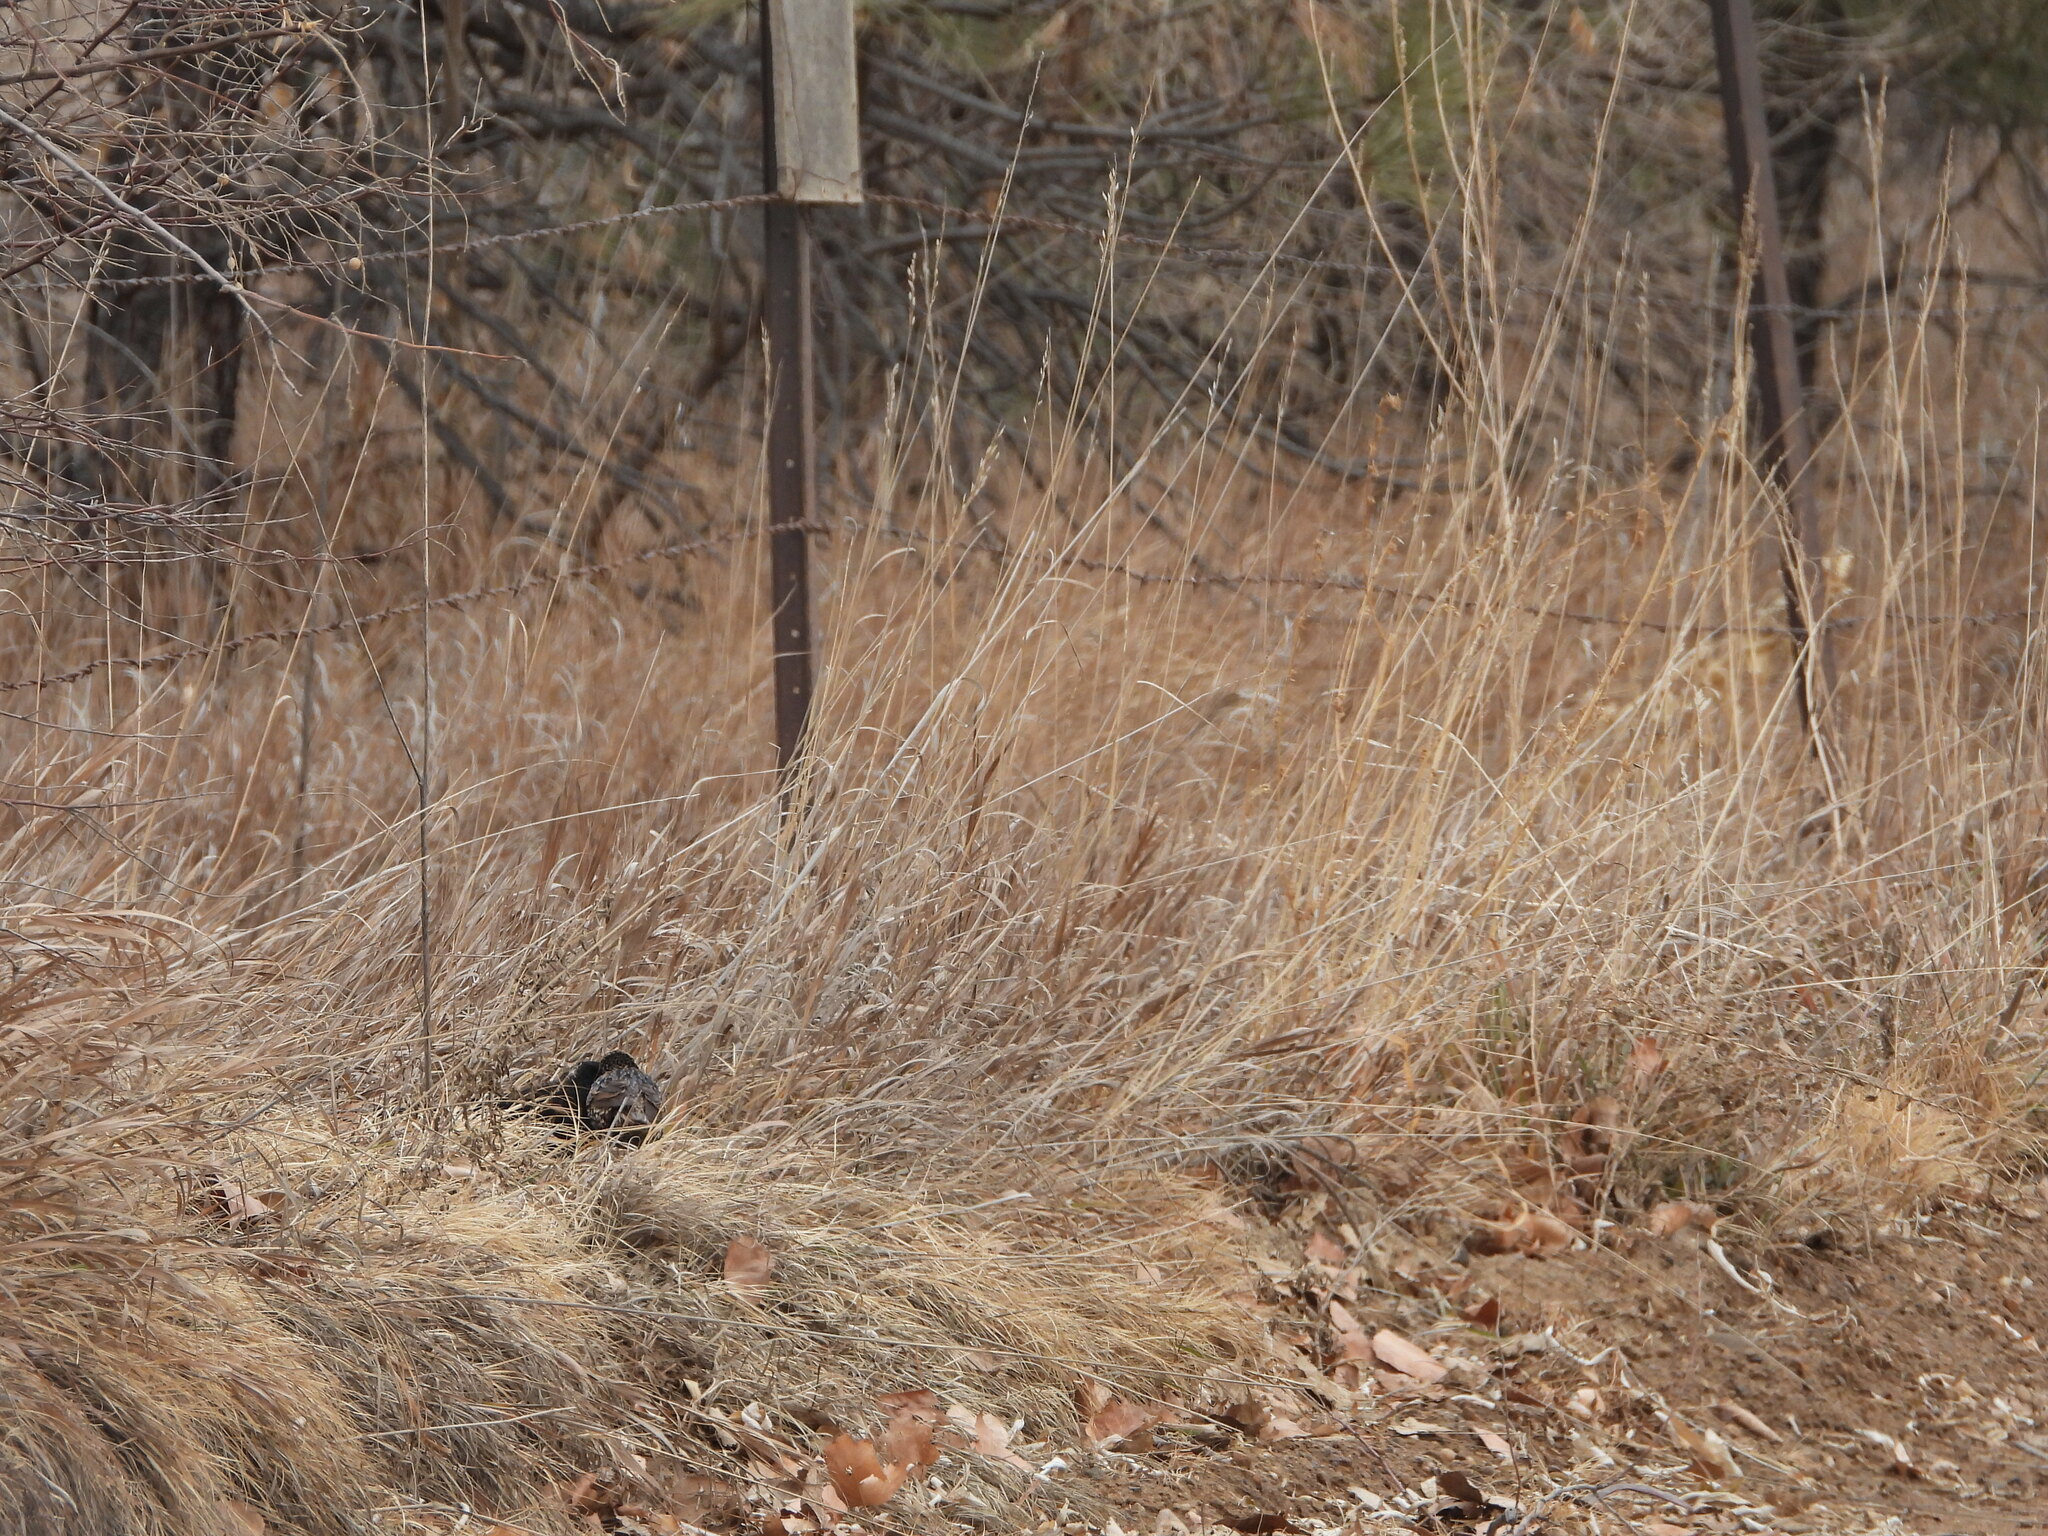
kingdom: Animalia
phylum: Chordata
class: Aves
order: Passeriformes
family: Icteridae
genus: Agelaius
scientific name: Agelaius phoeniceus
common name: Red-winged blackbird
